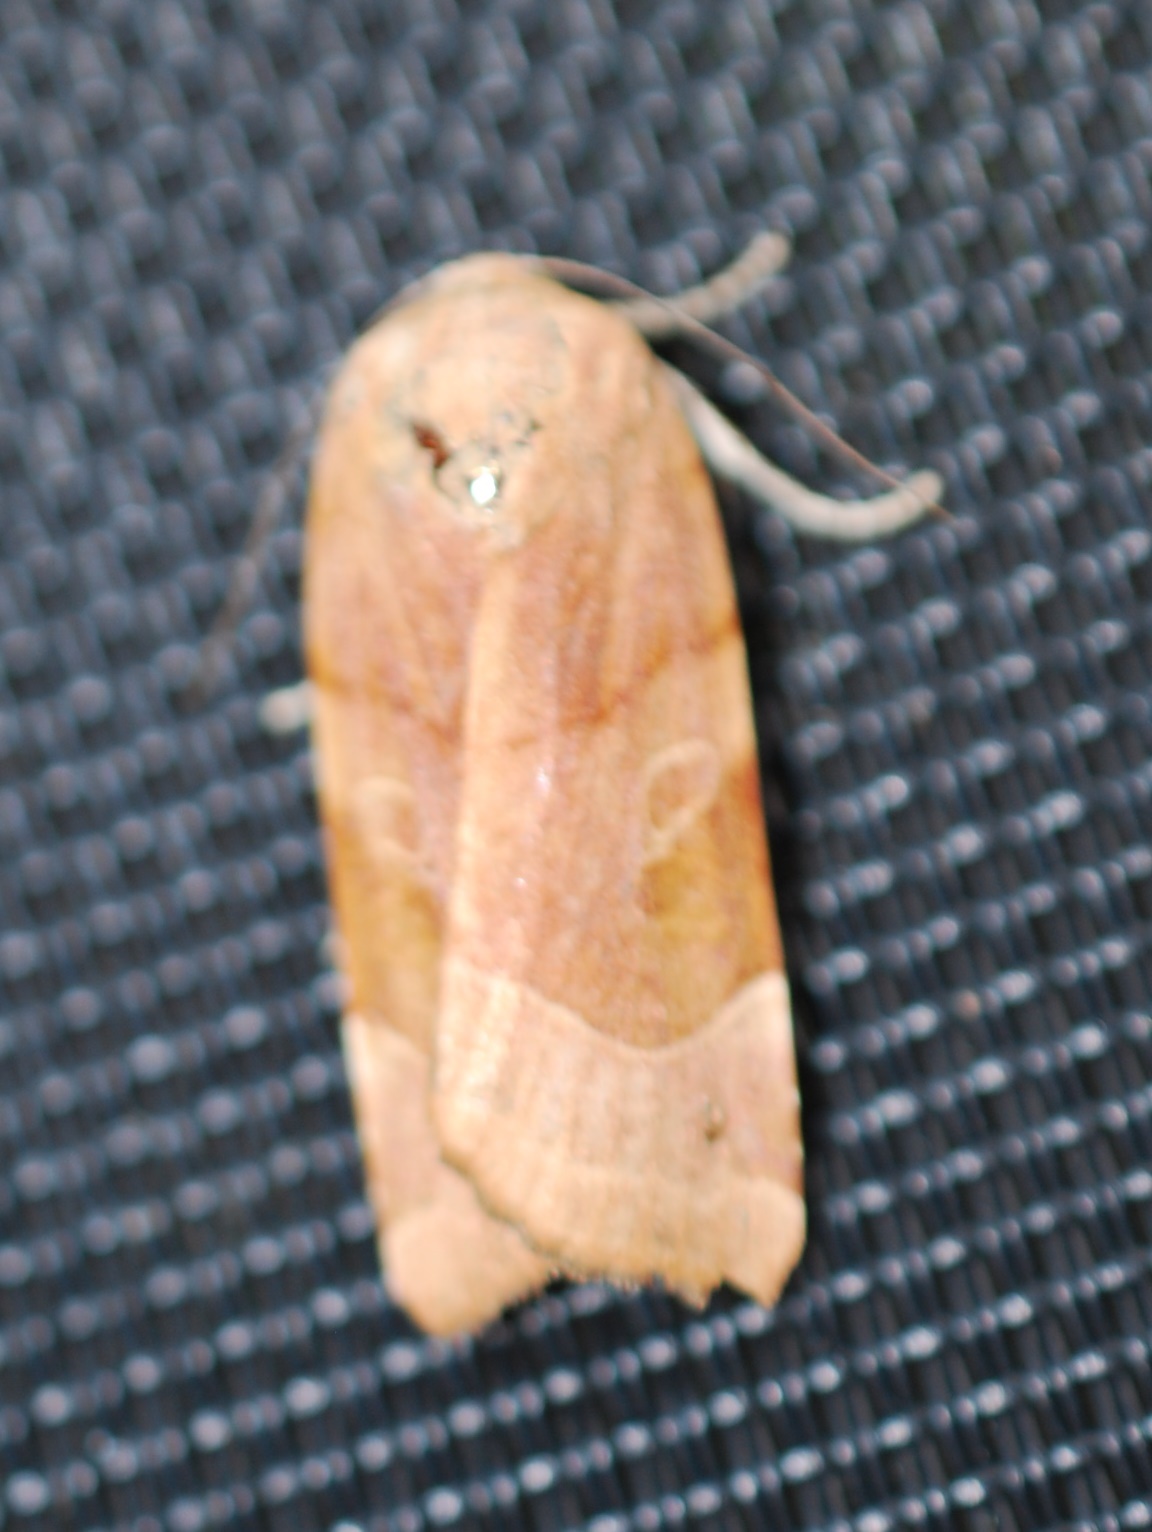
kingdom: Animalia
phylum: Arthropoda
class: Insecta
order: Lepidoptera
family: Noctuidae
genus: Noctua
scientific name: Noctua fimbriata
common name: Broad-bordered yellow underwing
